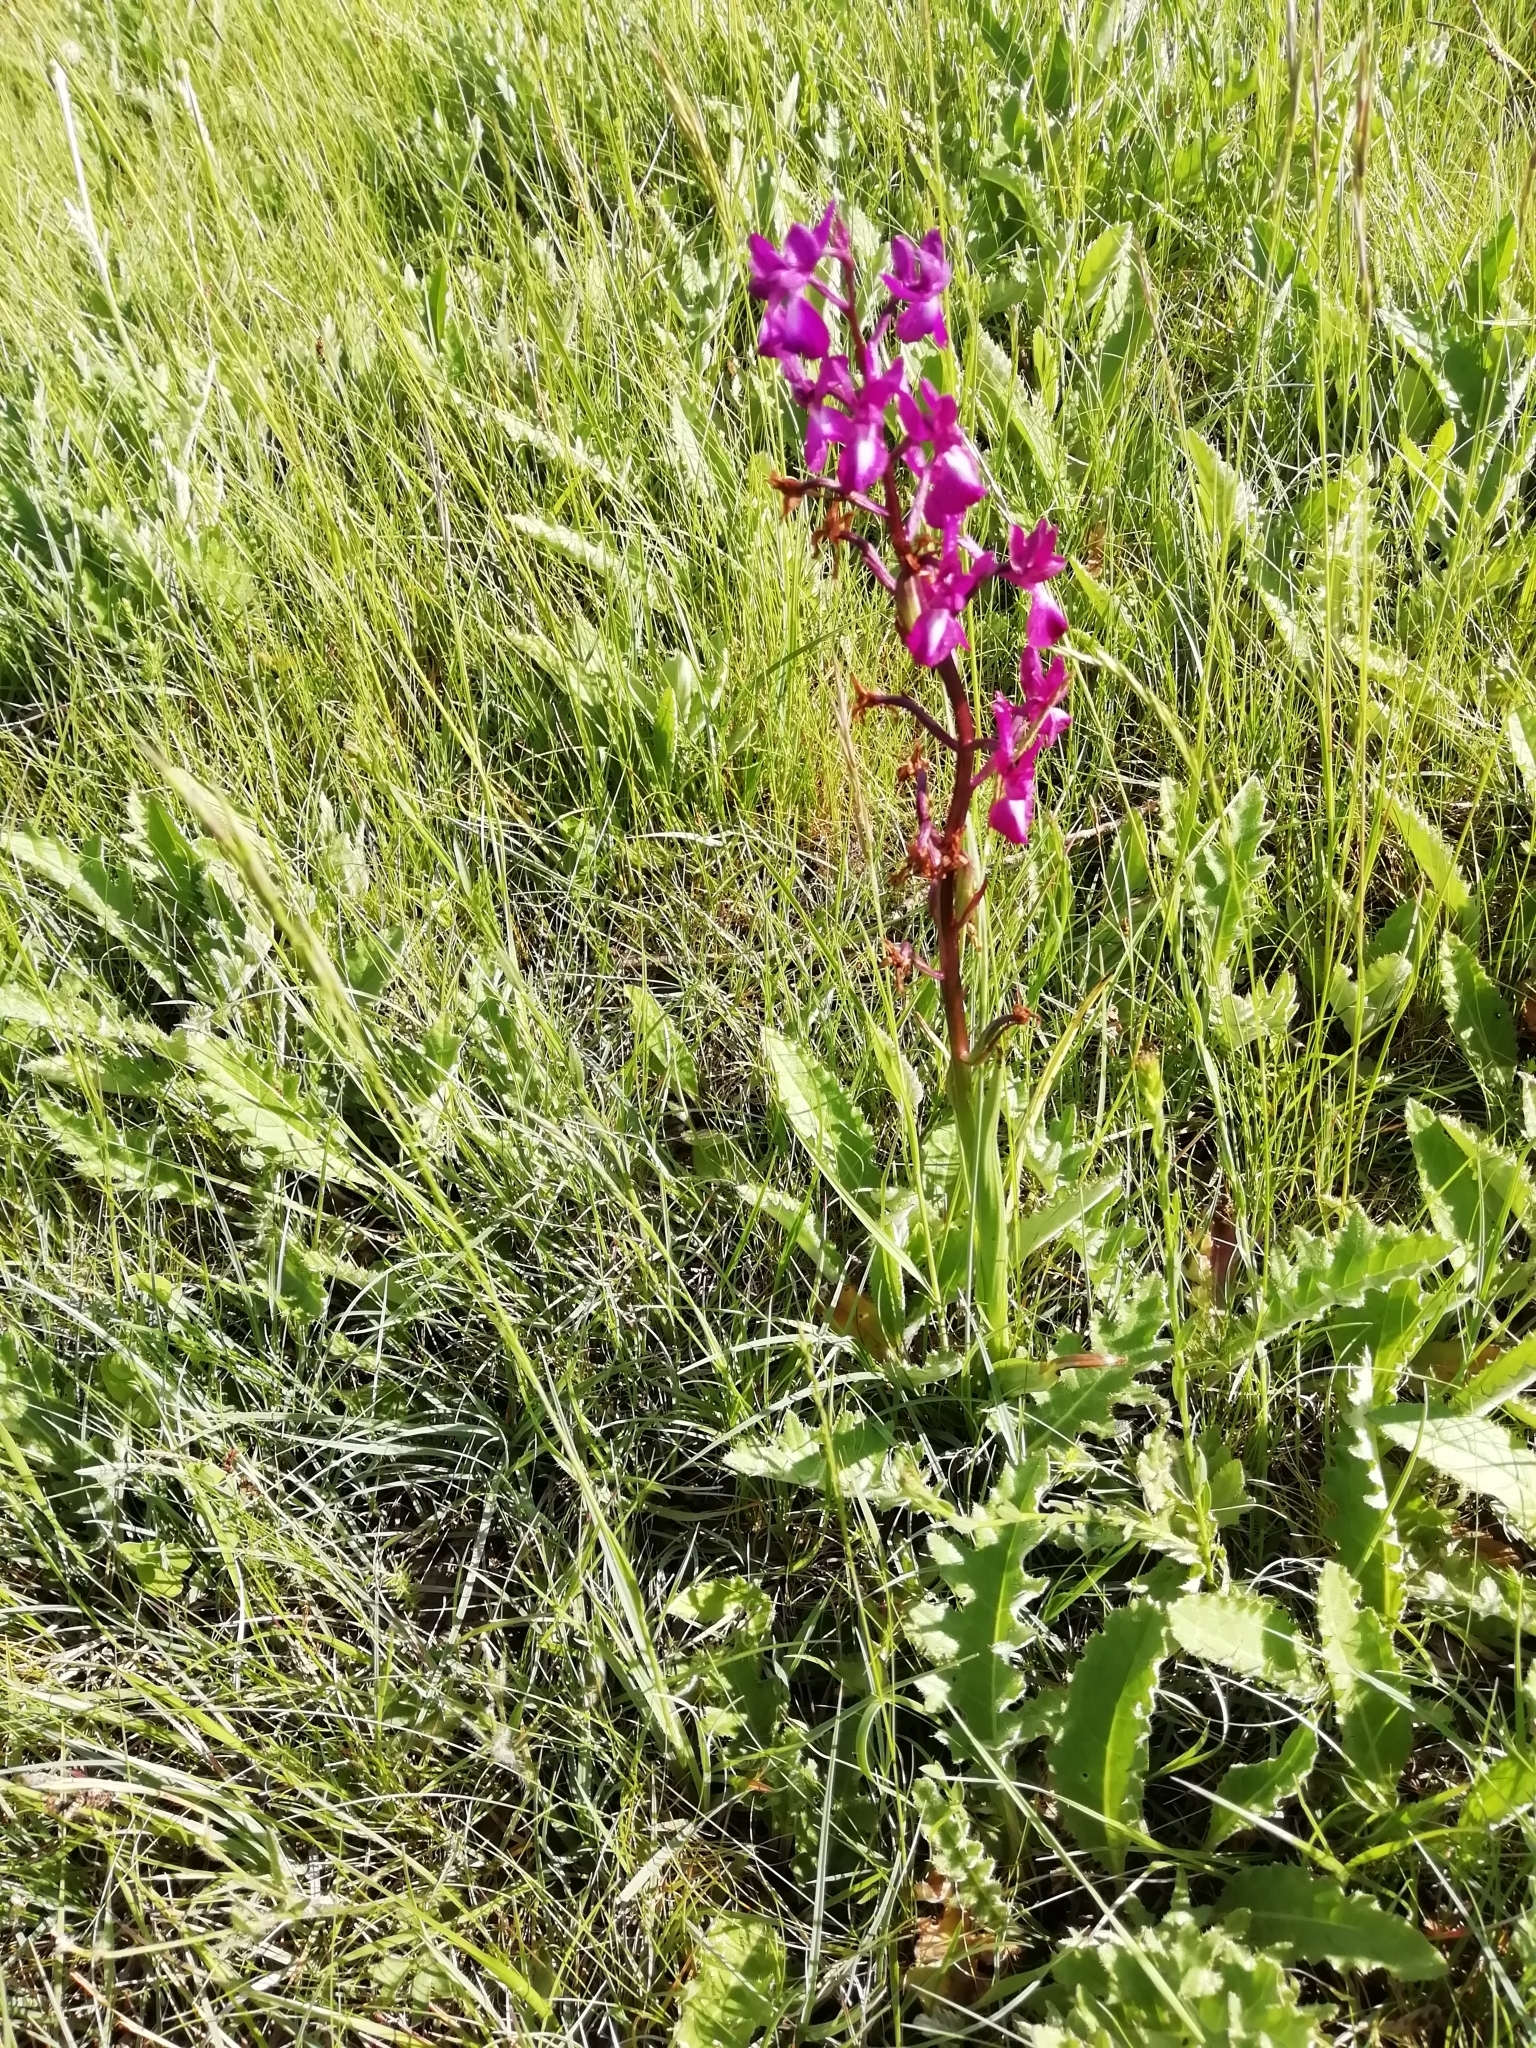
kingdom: Plantae
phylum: Tracheophyta
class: Liliopsida
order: Asparagales
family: Orchidaceae
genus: Anacamptis
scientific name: Anacamptis laxiflora
